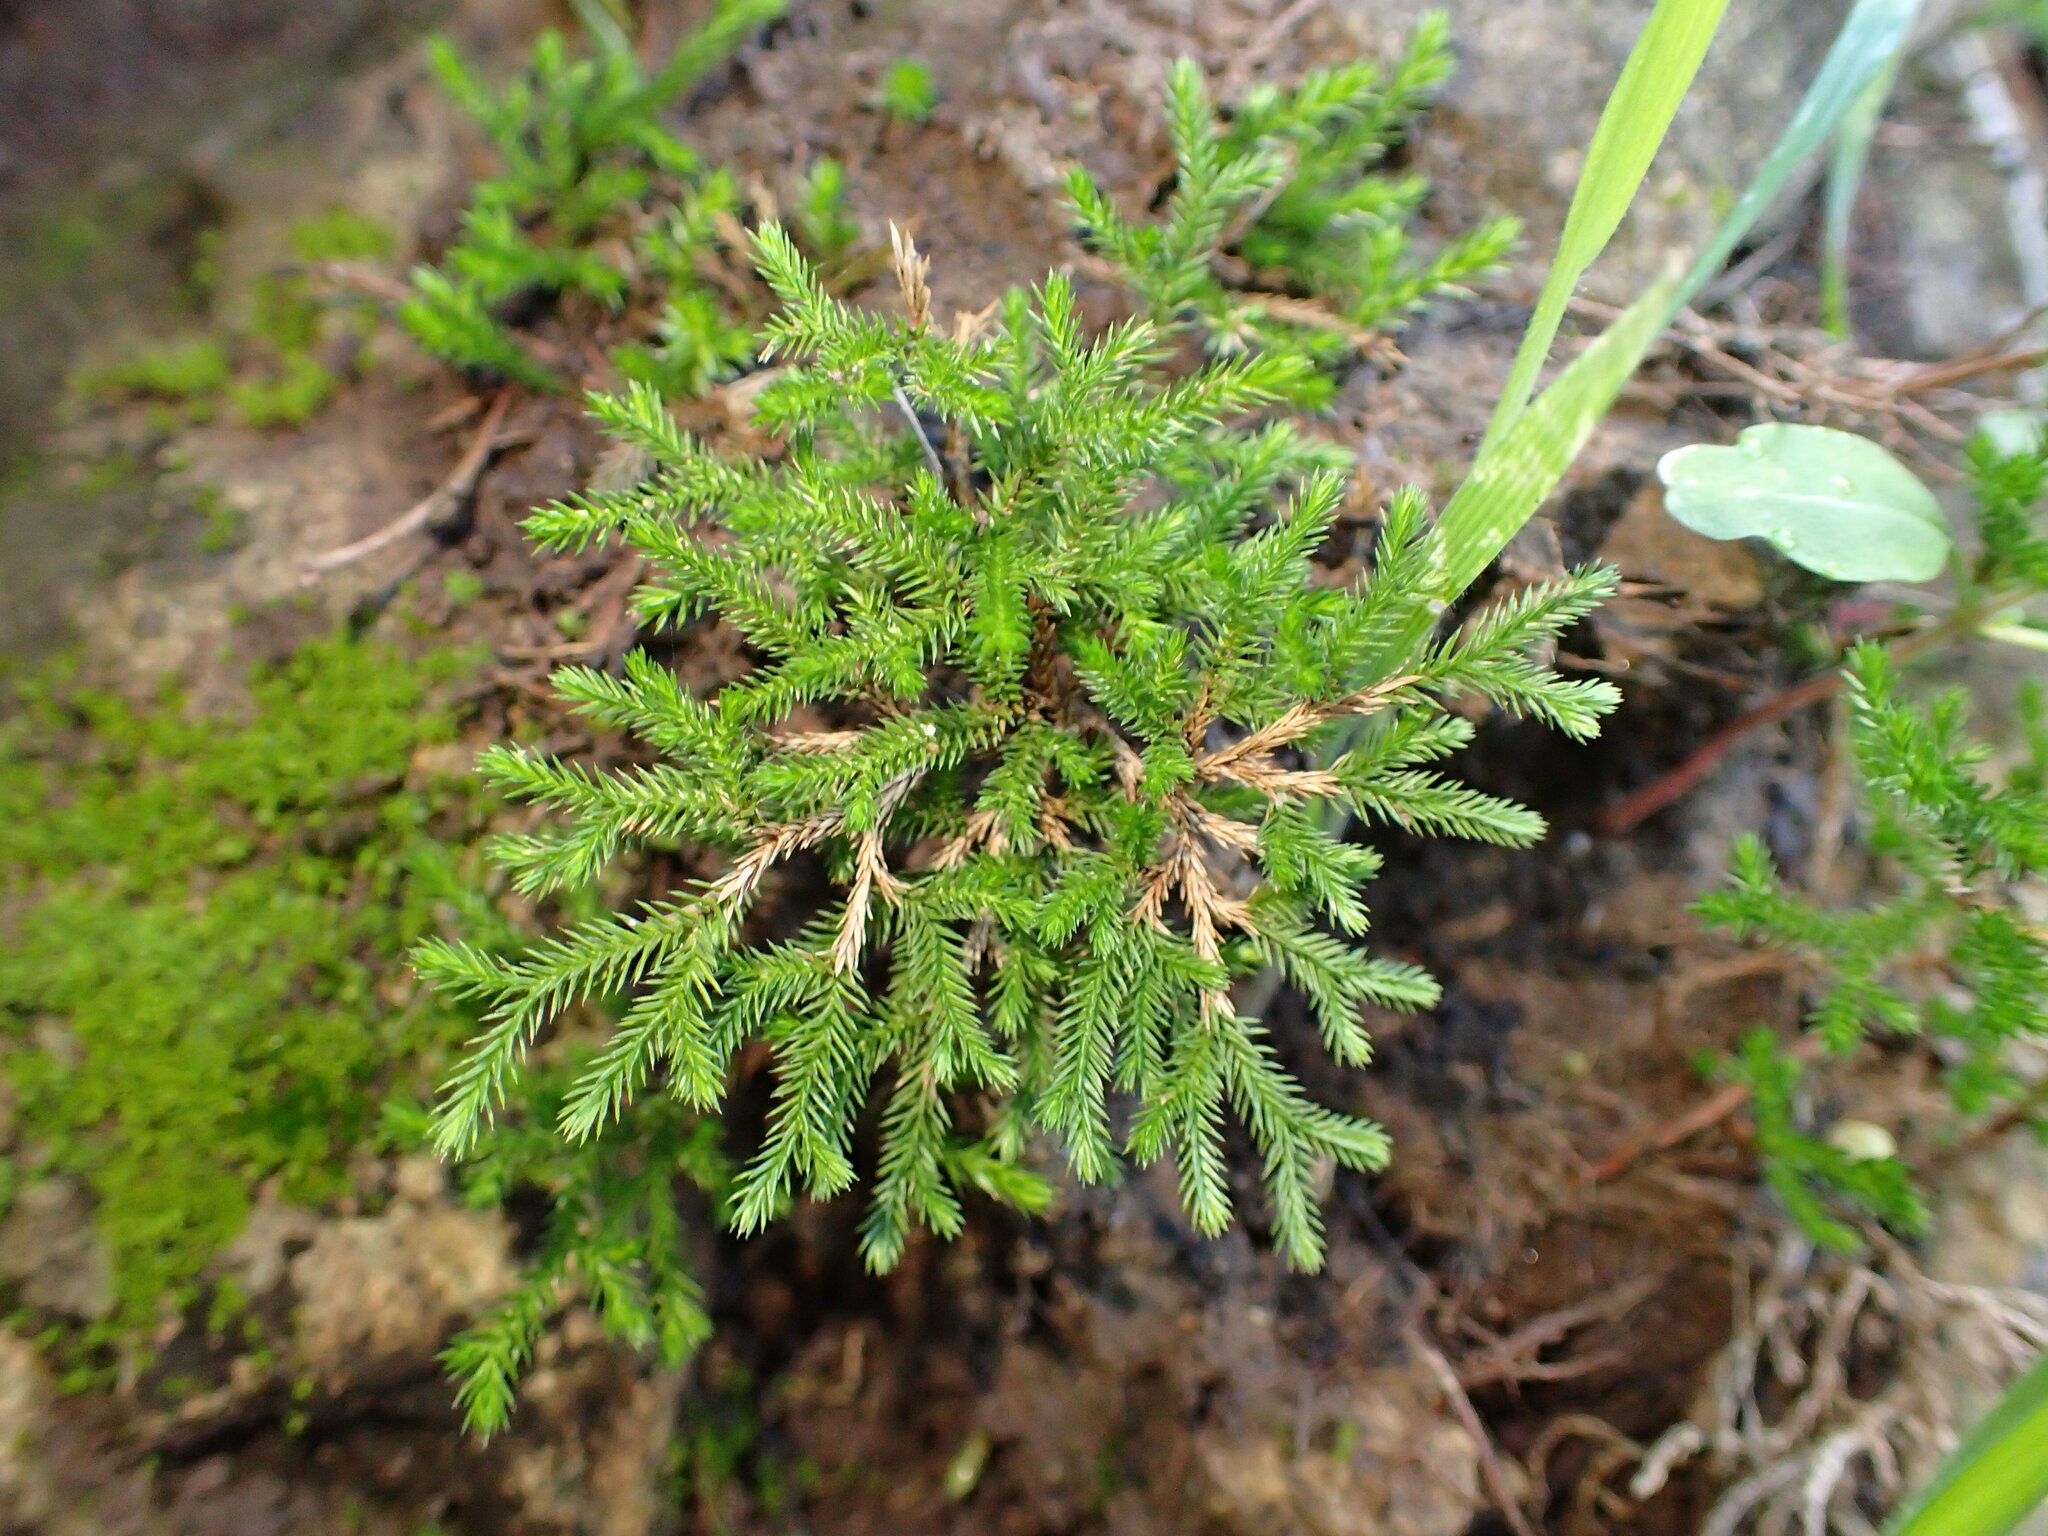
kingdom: Plantae
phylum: Tracheophyta
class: Lycopodiopsida
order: Selaginellales
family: Selaginellaceae
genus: Selaginella
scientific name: Selaginella bigelovii
